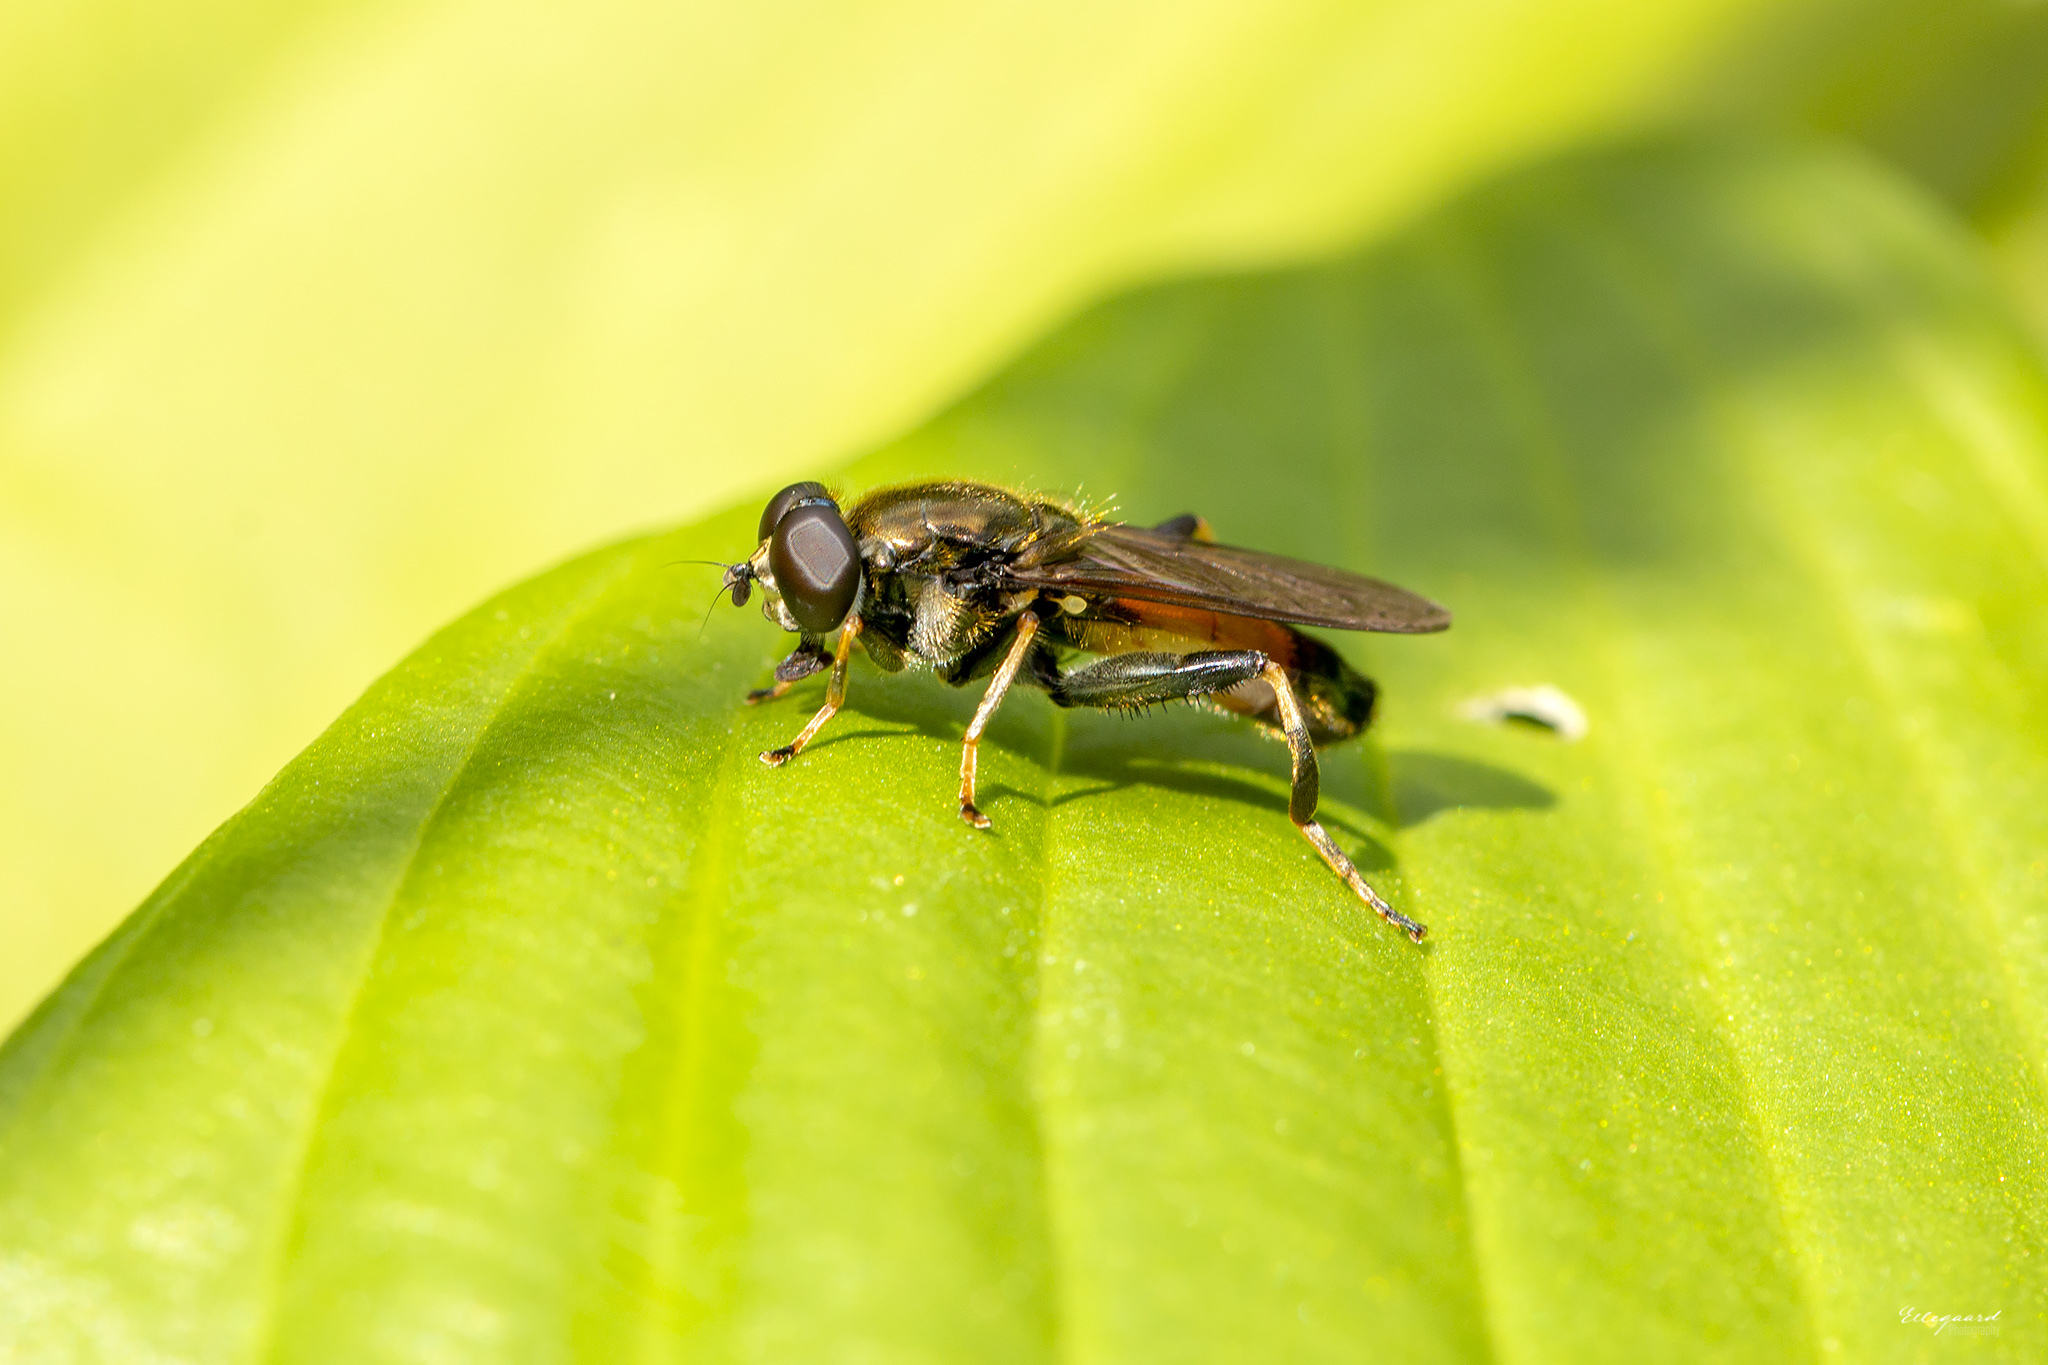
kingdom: Animalia
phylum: Arthropoda
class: Insecta
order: Diptera
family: Syrphidae
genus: Xylota
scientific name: Xylota segnis
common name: Brown-toed forest fly
